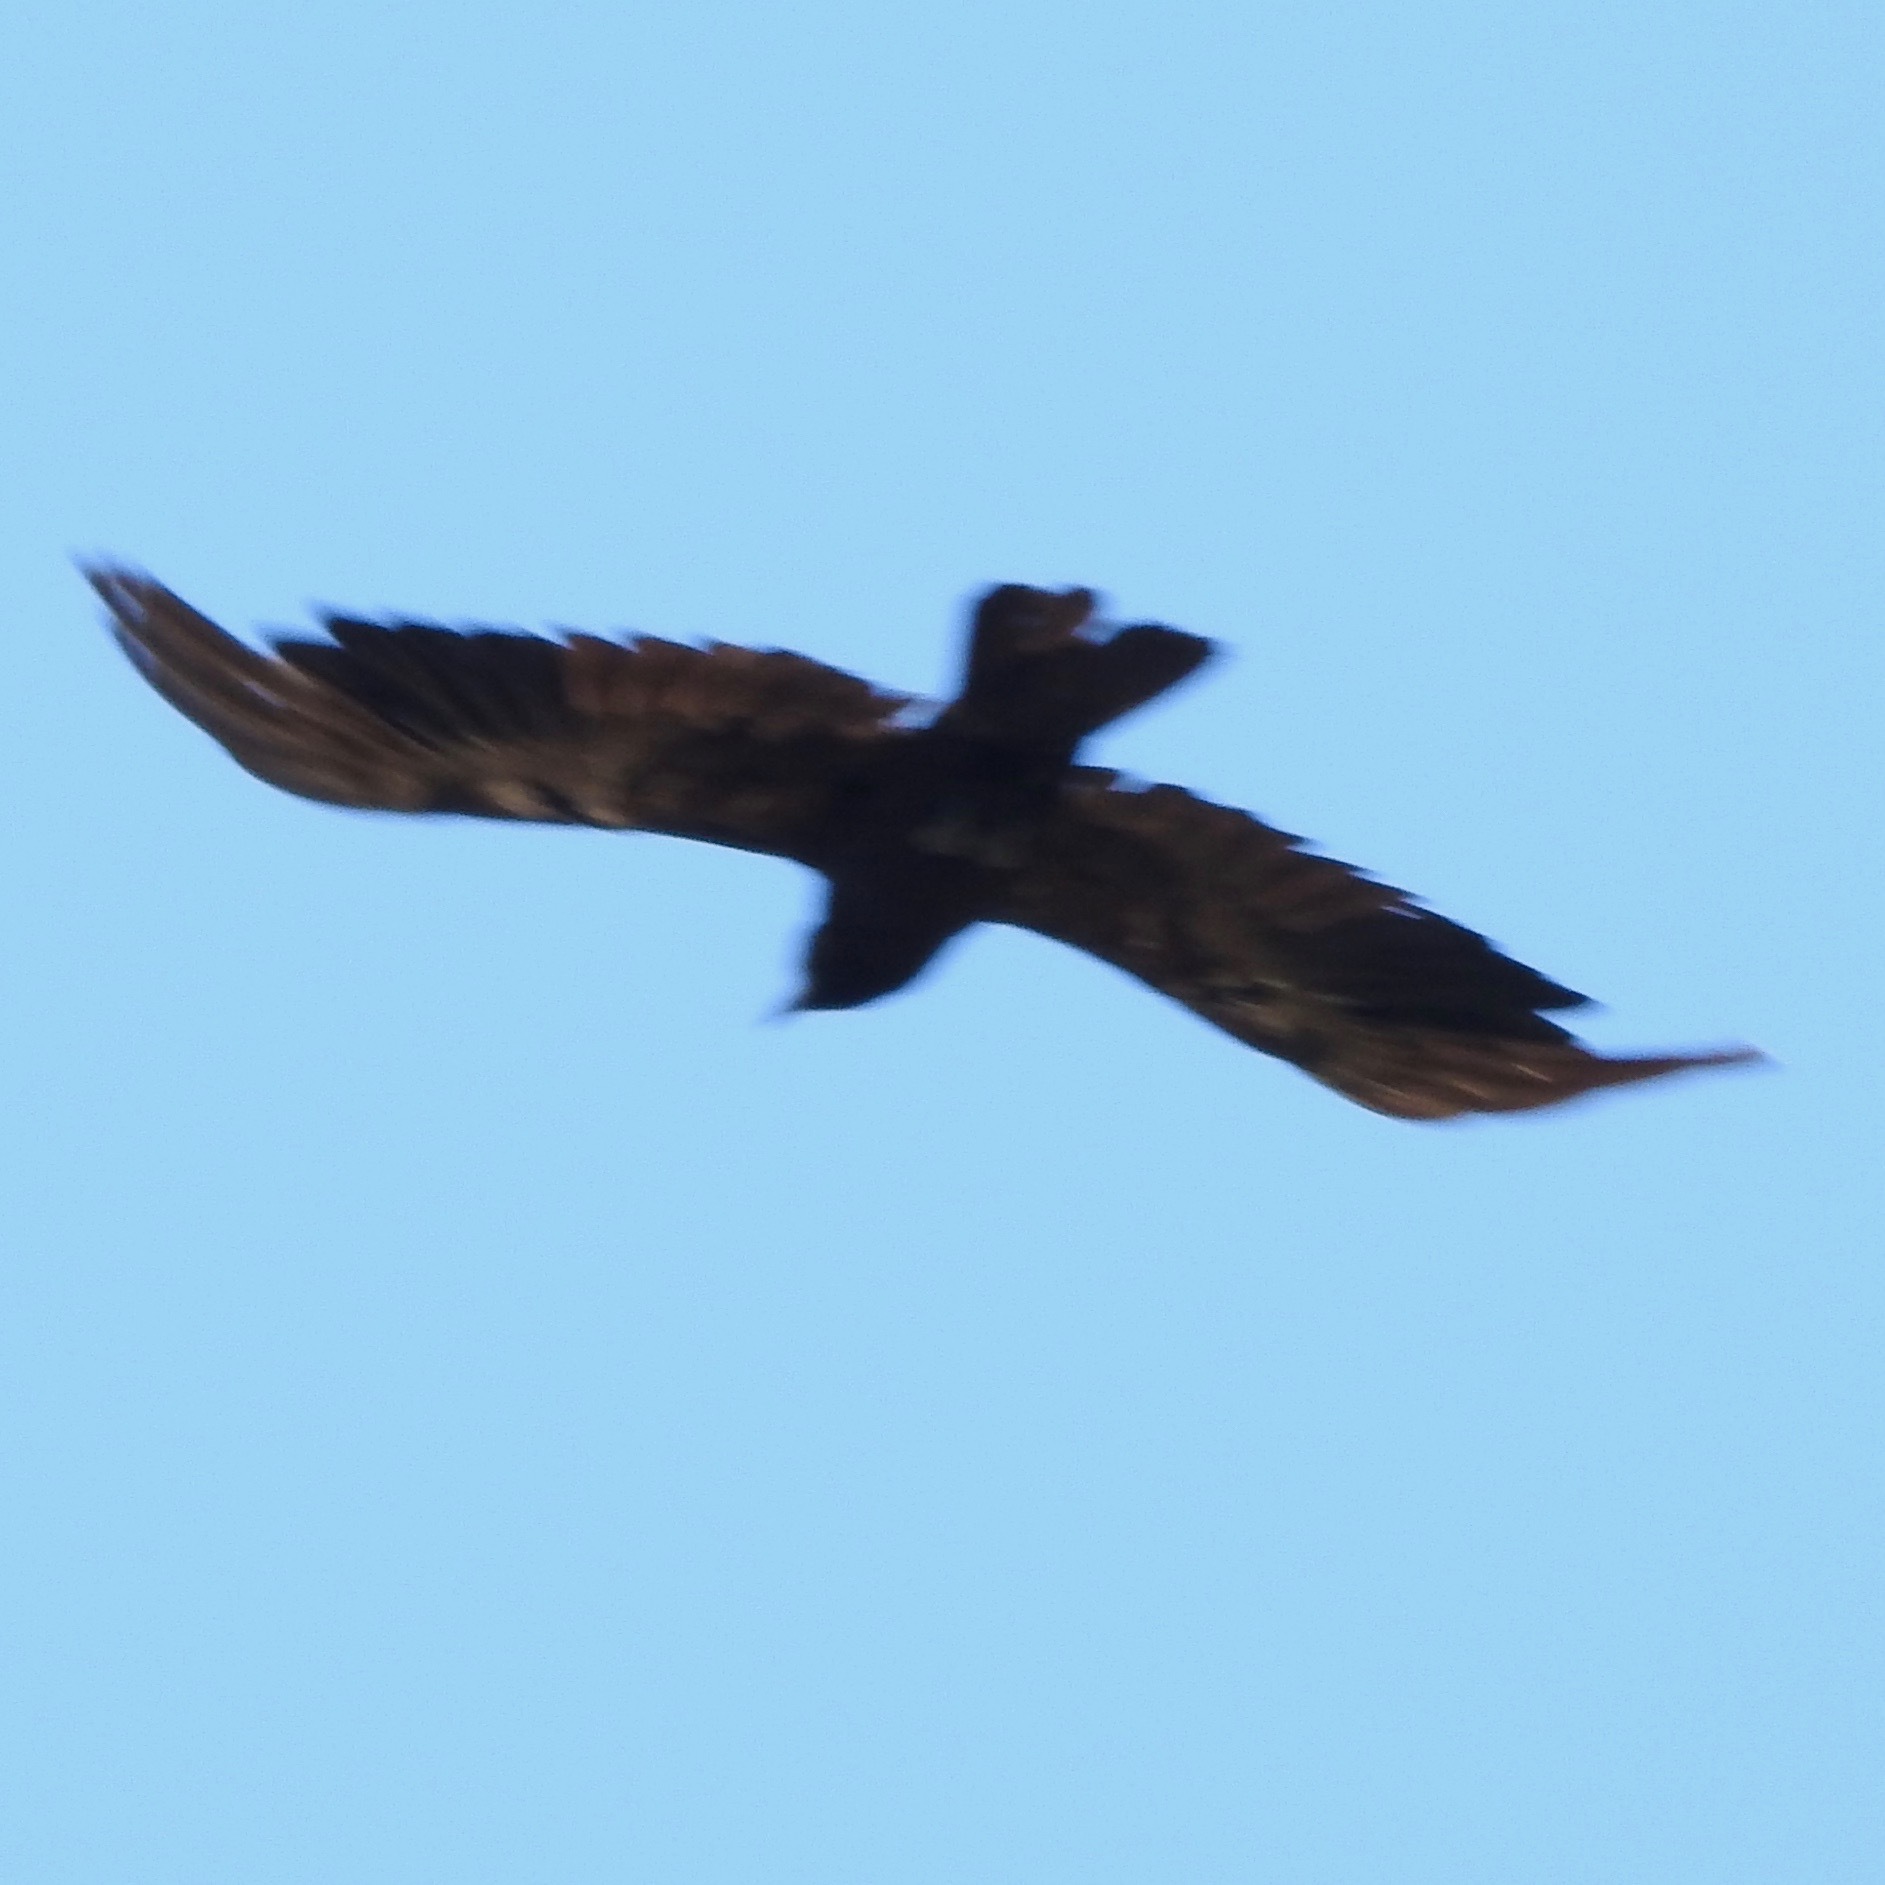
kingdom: Animalia
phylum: Chordata
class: Aves
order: Passeriformes
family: Corvidae
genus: Corvus
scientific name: Corvus corax
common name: Common raven
